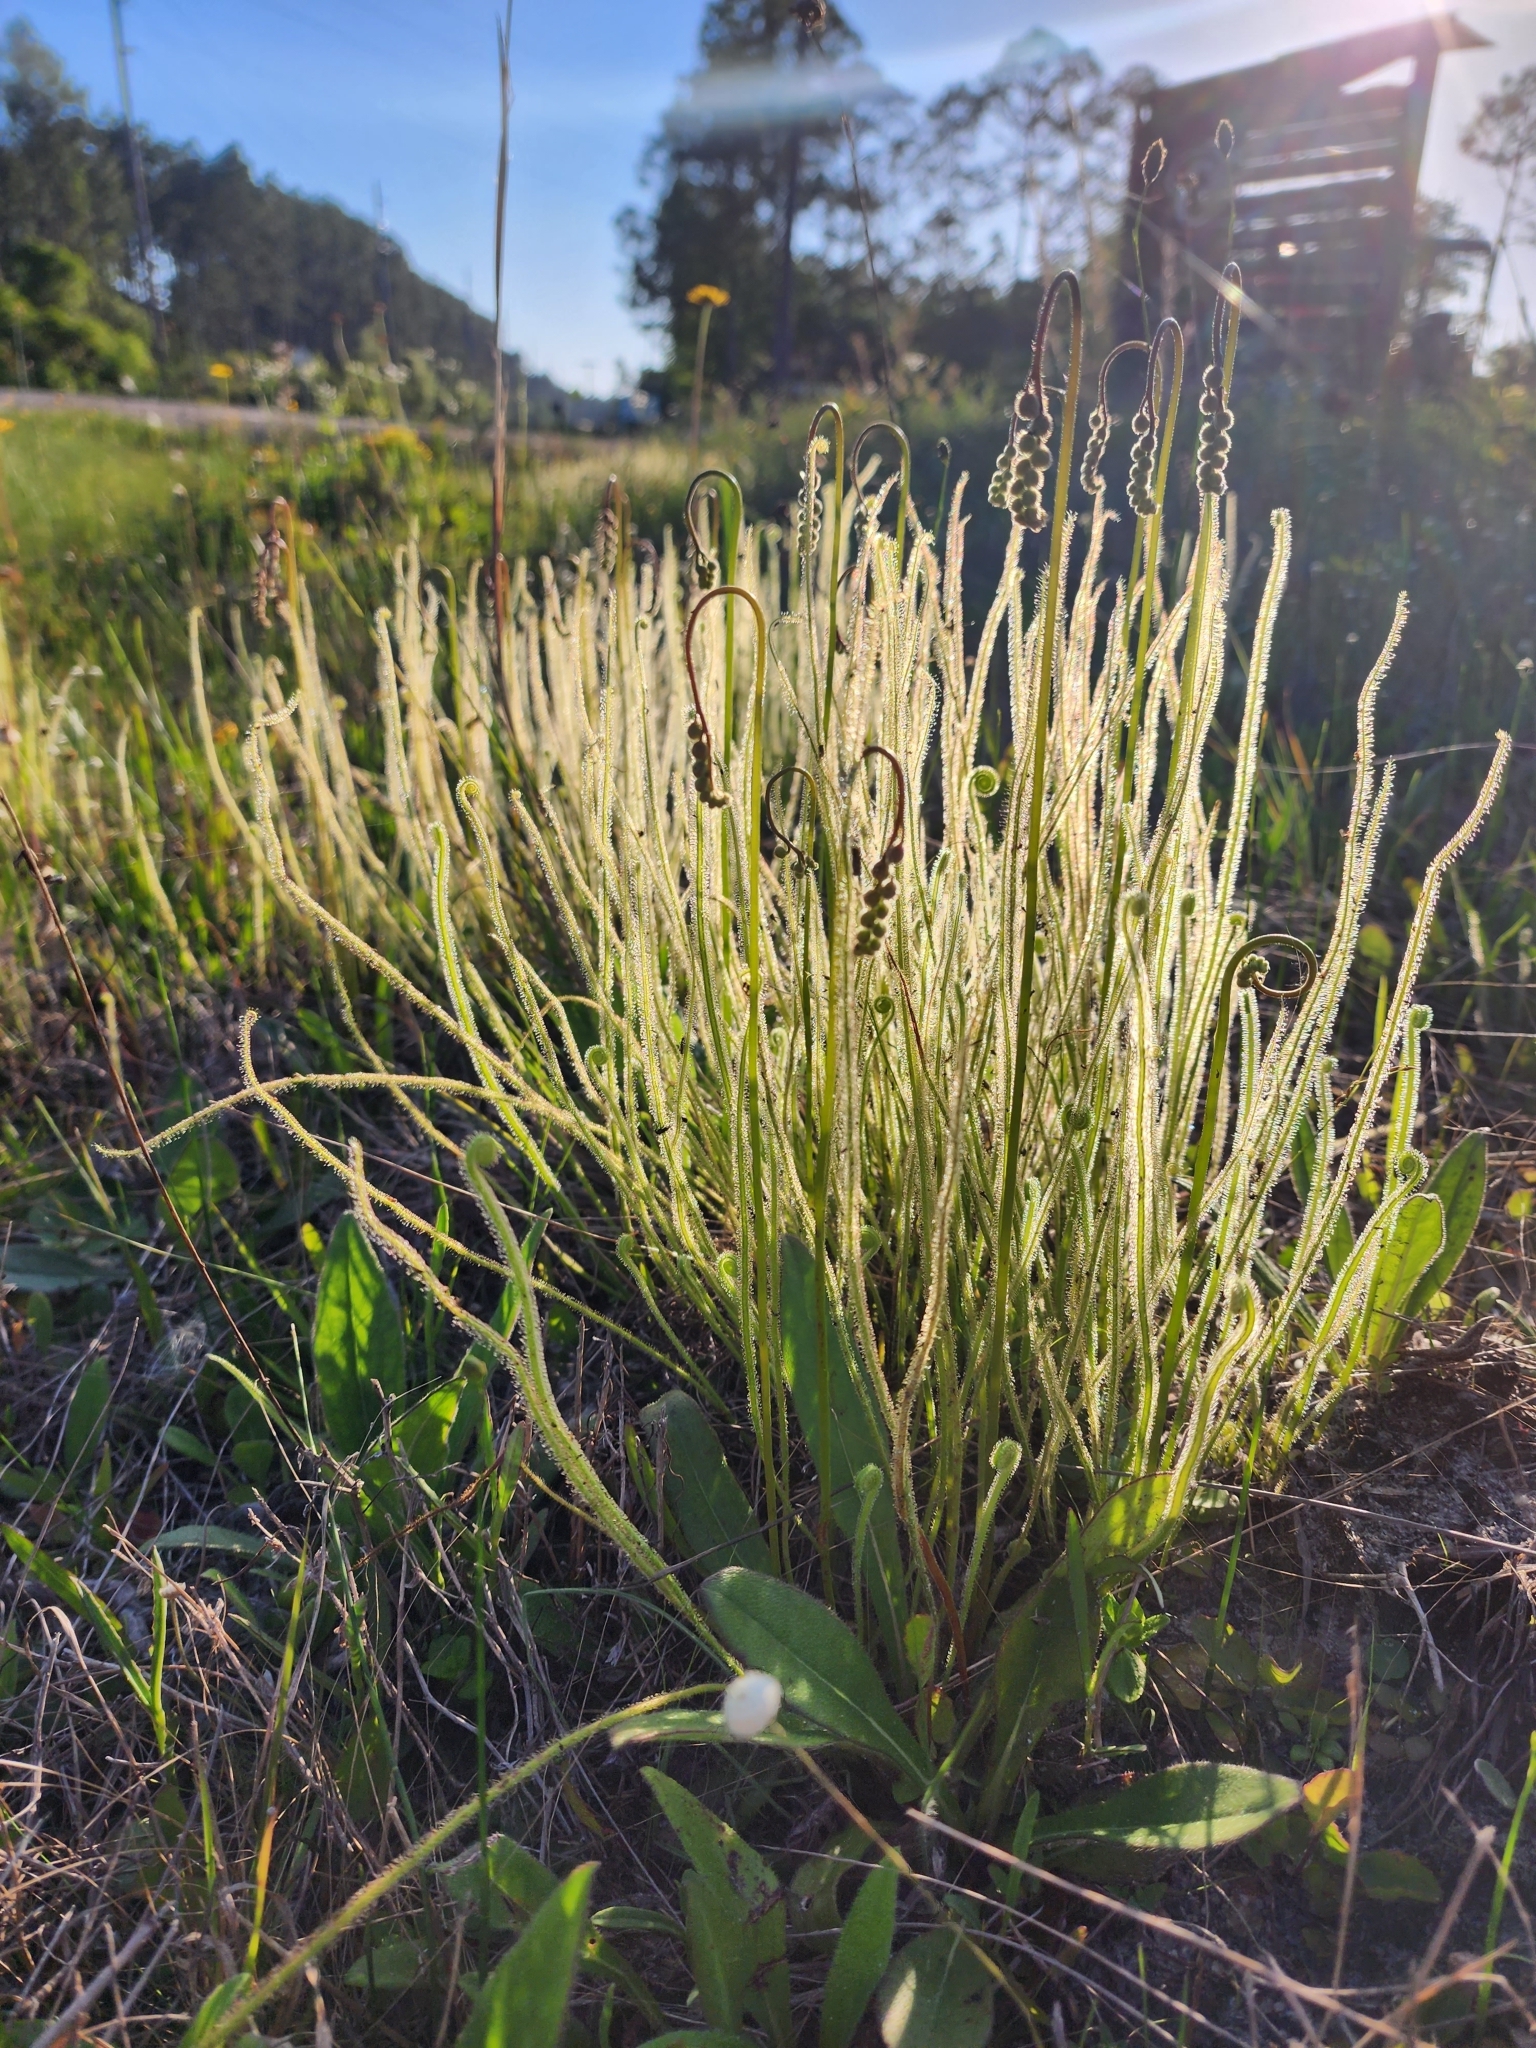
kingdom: Plantae
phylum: Tracheophyta
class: Magnoliopsida
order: Caryophyllales
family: Droseraceae
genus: Drosera
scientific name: Drosera filiformis
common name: Dew-thread
